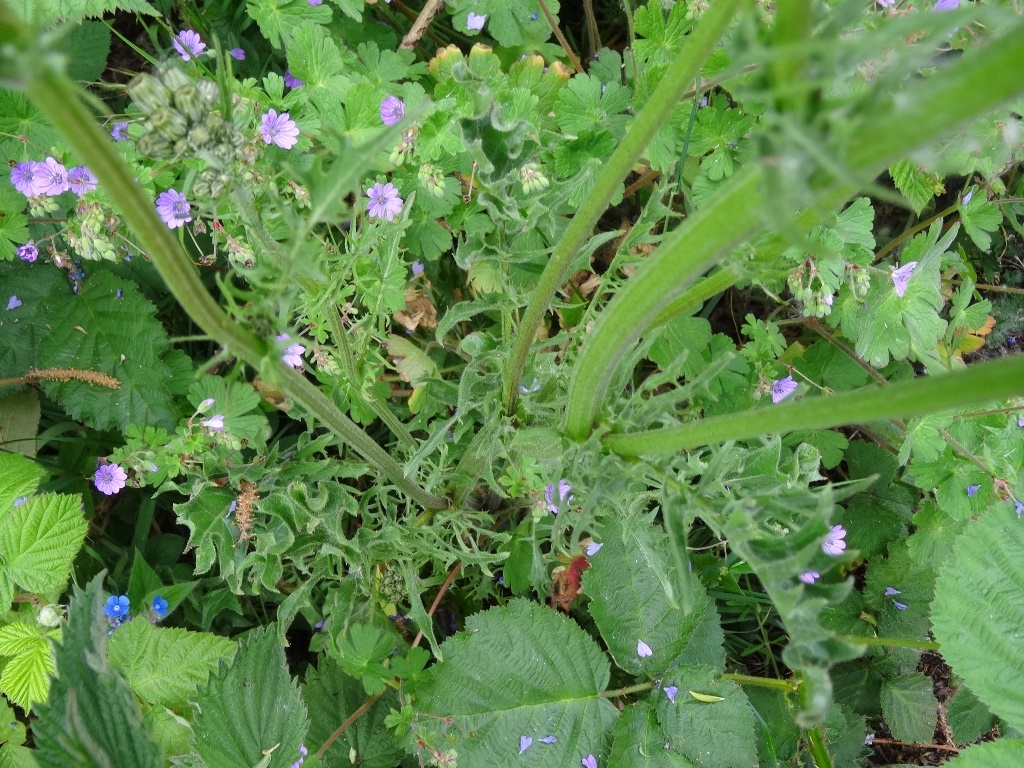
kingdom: Plantae
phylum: Tracheophyta
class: Magnoliopsida
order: Asterales
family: Asteraceae
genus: Crepis
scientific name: Crepis vesicaria
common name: Beaked hawksbeard
